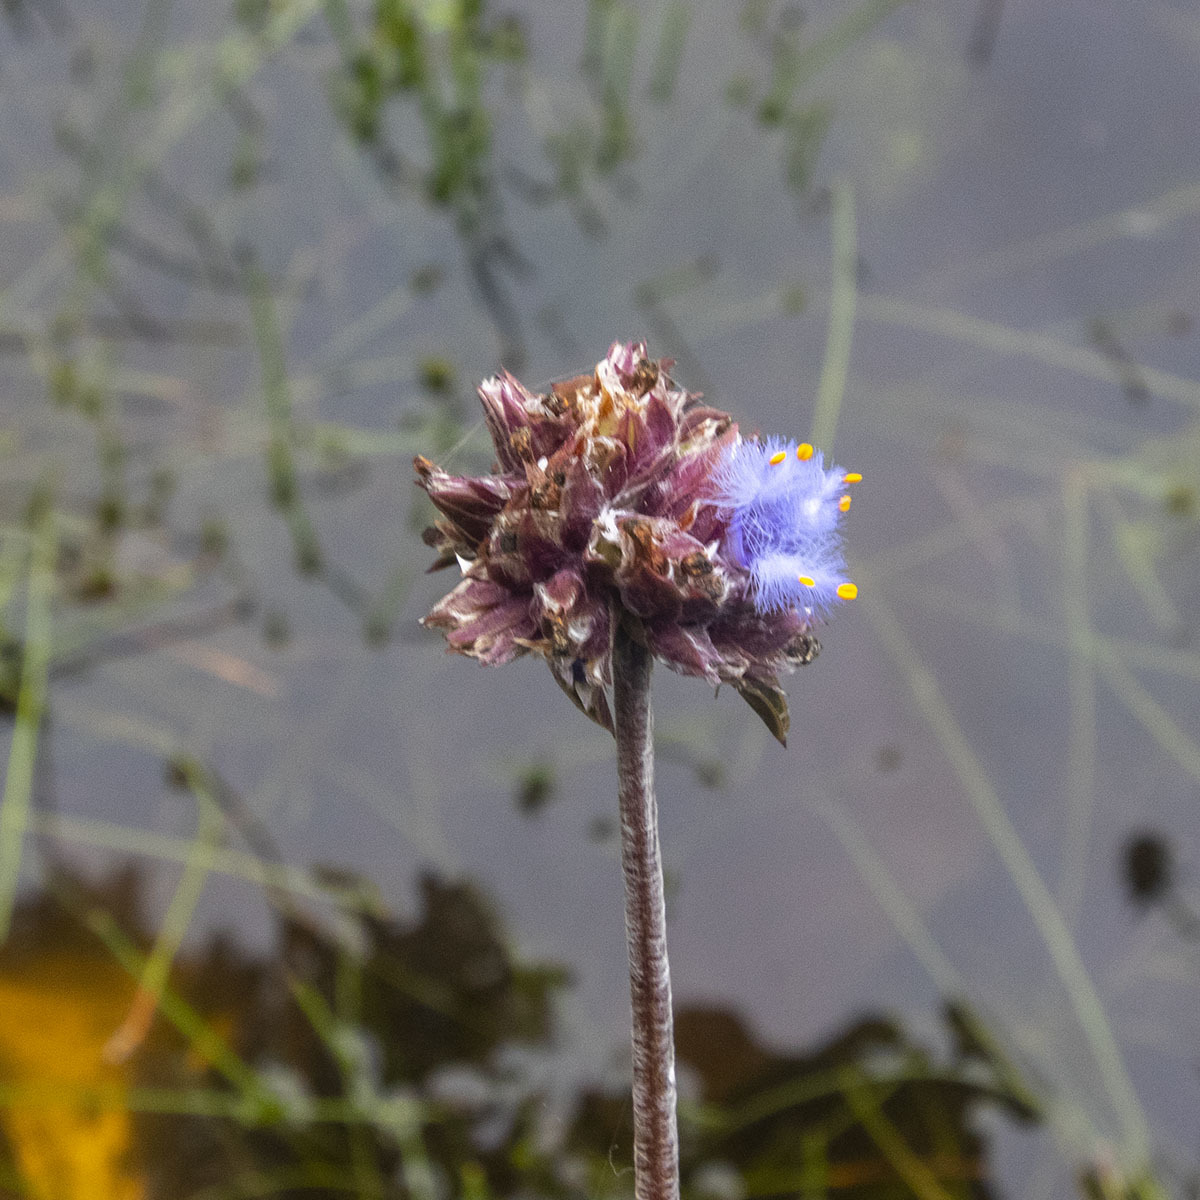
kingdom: Plantae
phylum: Tracheophyta
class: Liliopsida
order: Commelinales
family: Commelinaceae
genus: Cyanotis
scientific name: Cyanotis pilosa
